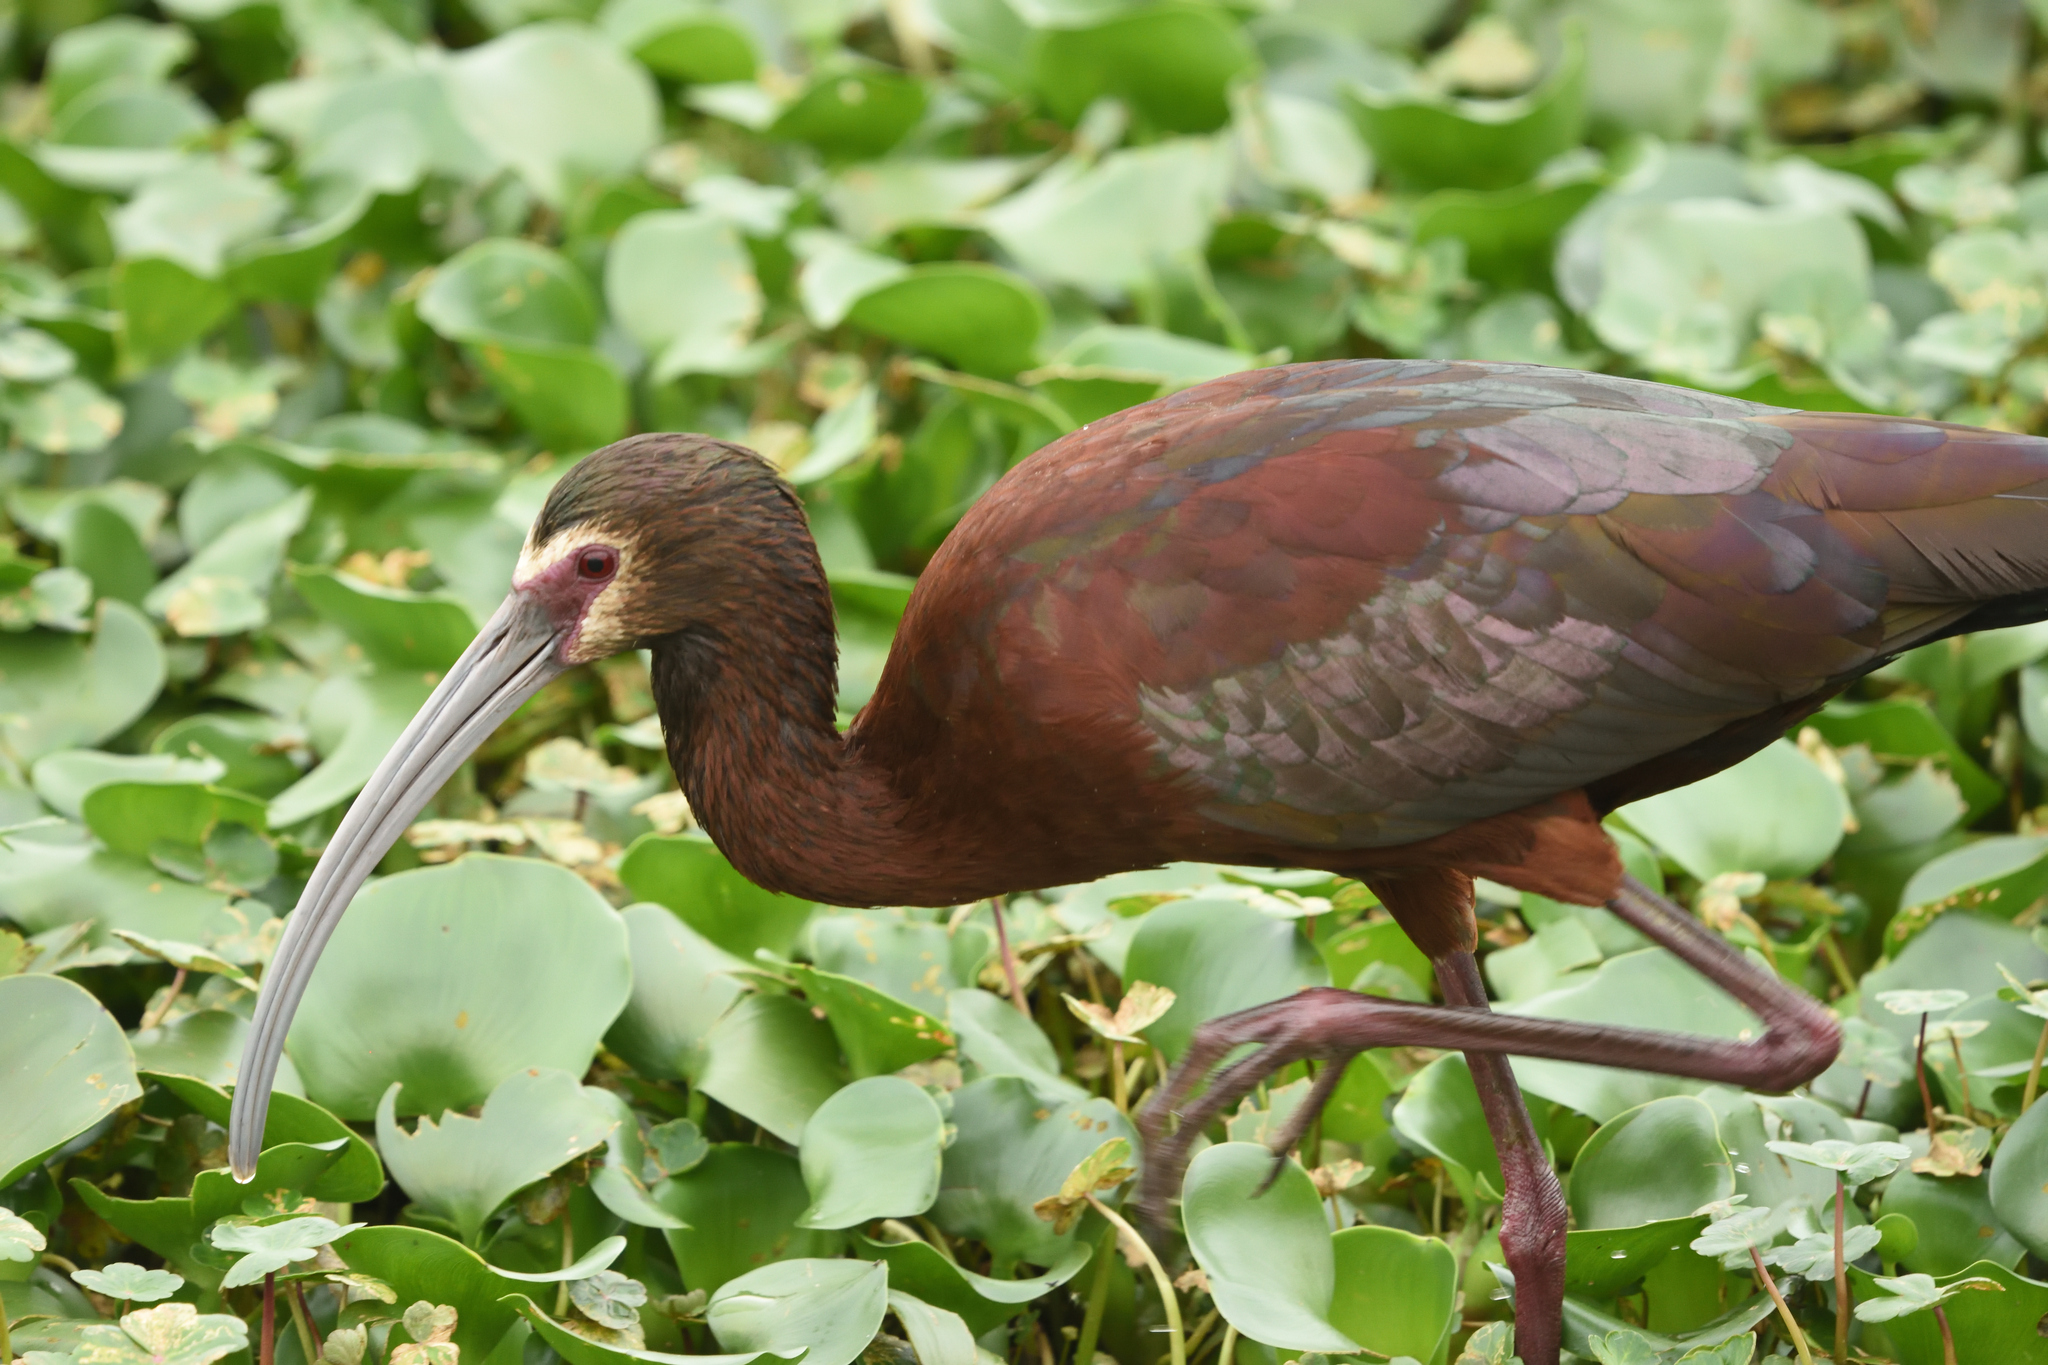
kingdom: Animalia
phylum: Chordata
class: Aves
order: Pelecaniformes
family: Threskiornithidae
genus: Plegadis
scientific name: Plegadis chihi
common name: White-faced ibis
